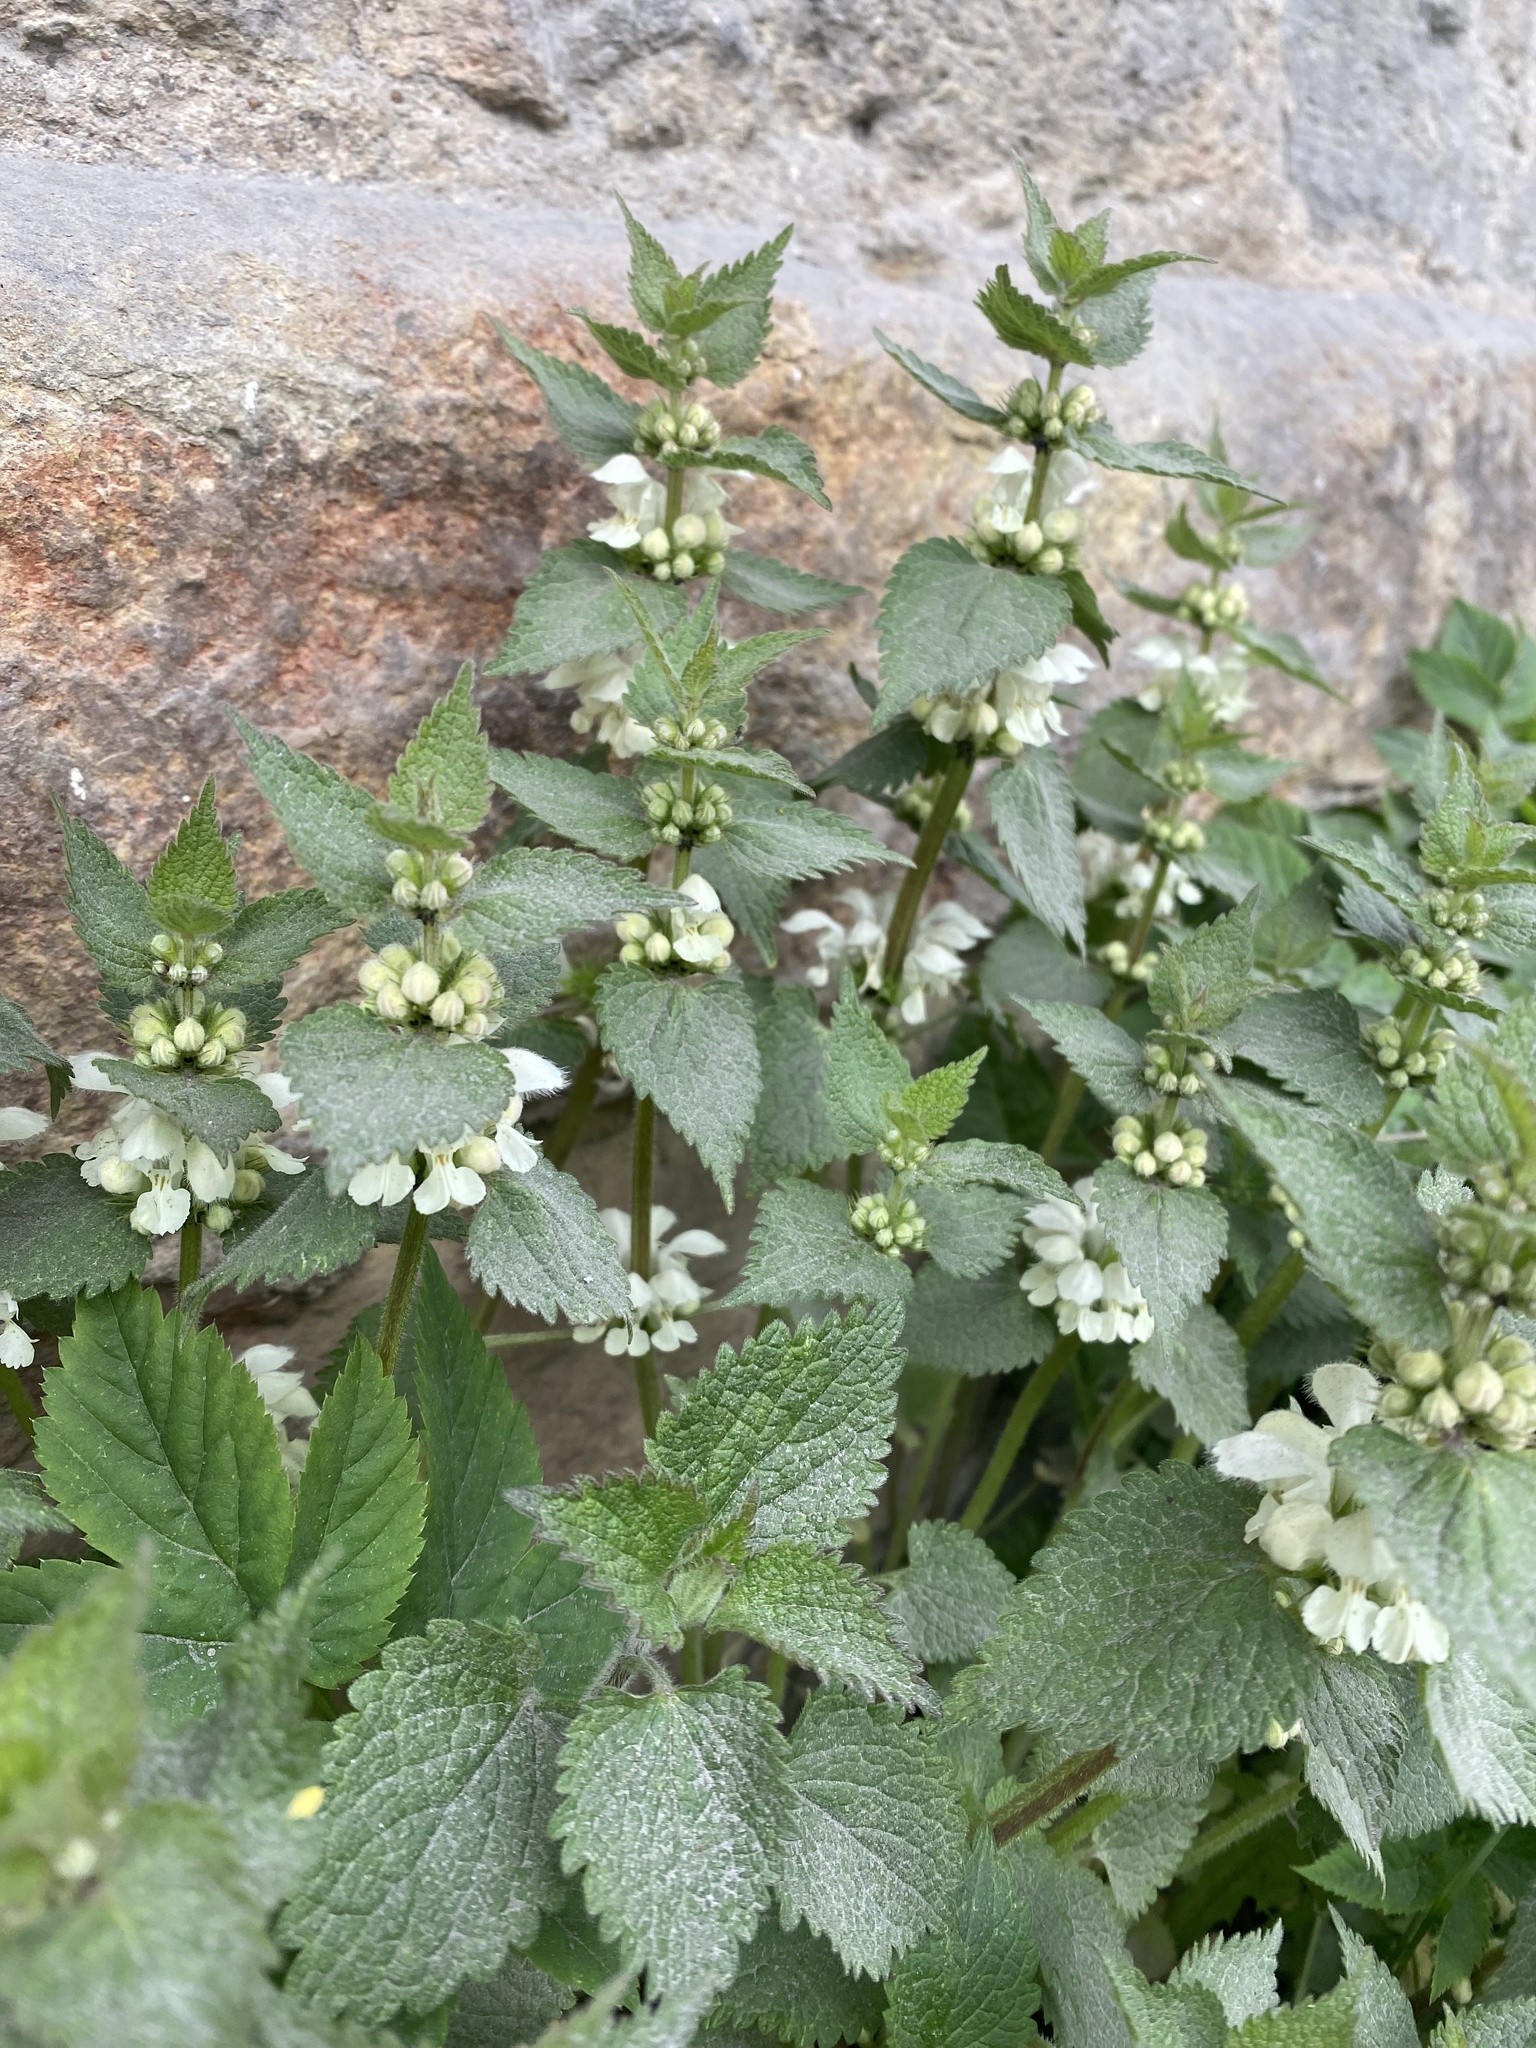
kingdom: Plantae
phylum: Tracheophyta
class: Magnoliopsida
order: Lamiales
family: Lamiaceae
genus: Lamium
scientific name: Lamium album
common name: White dead-nettle
